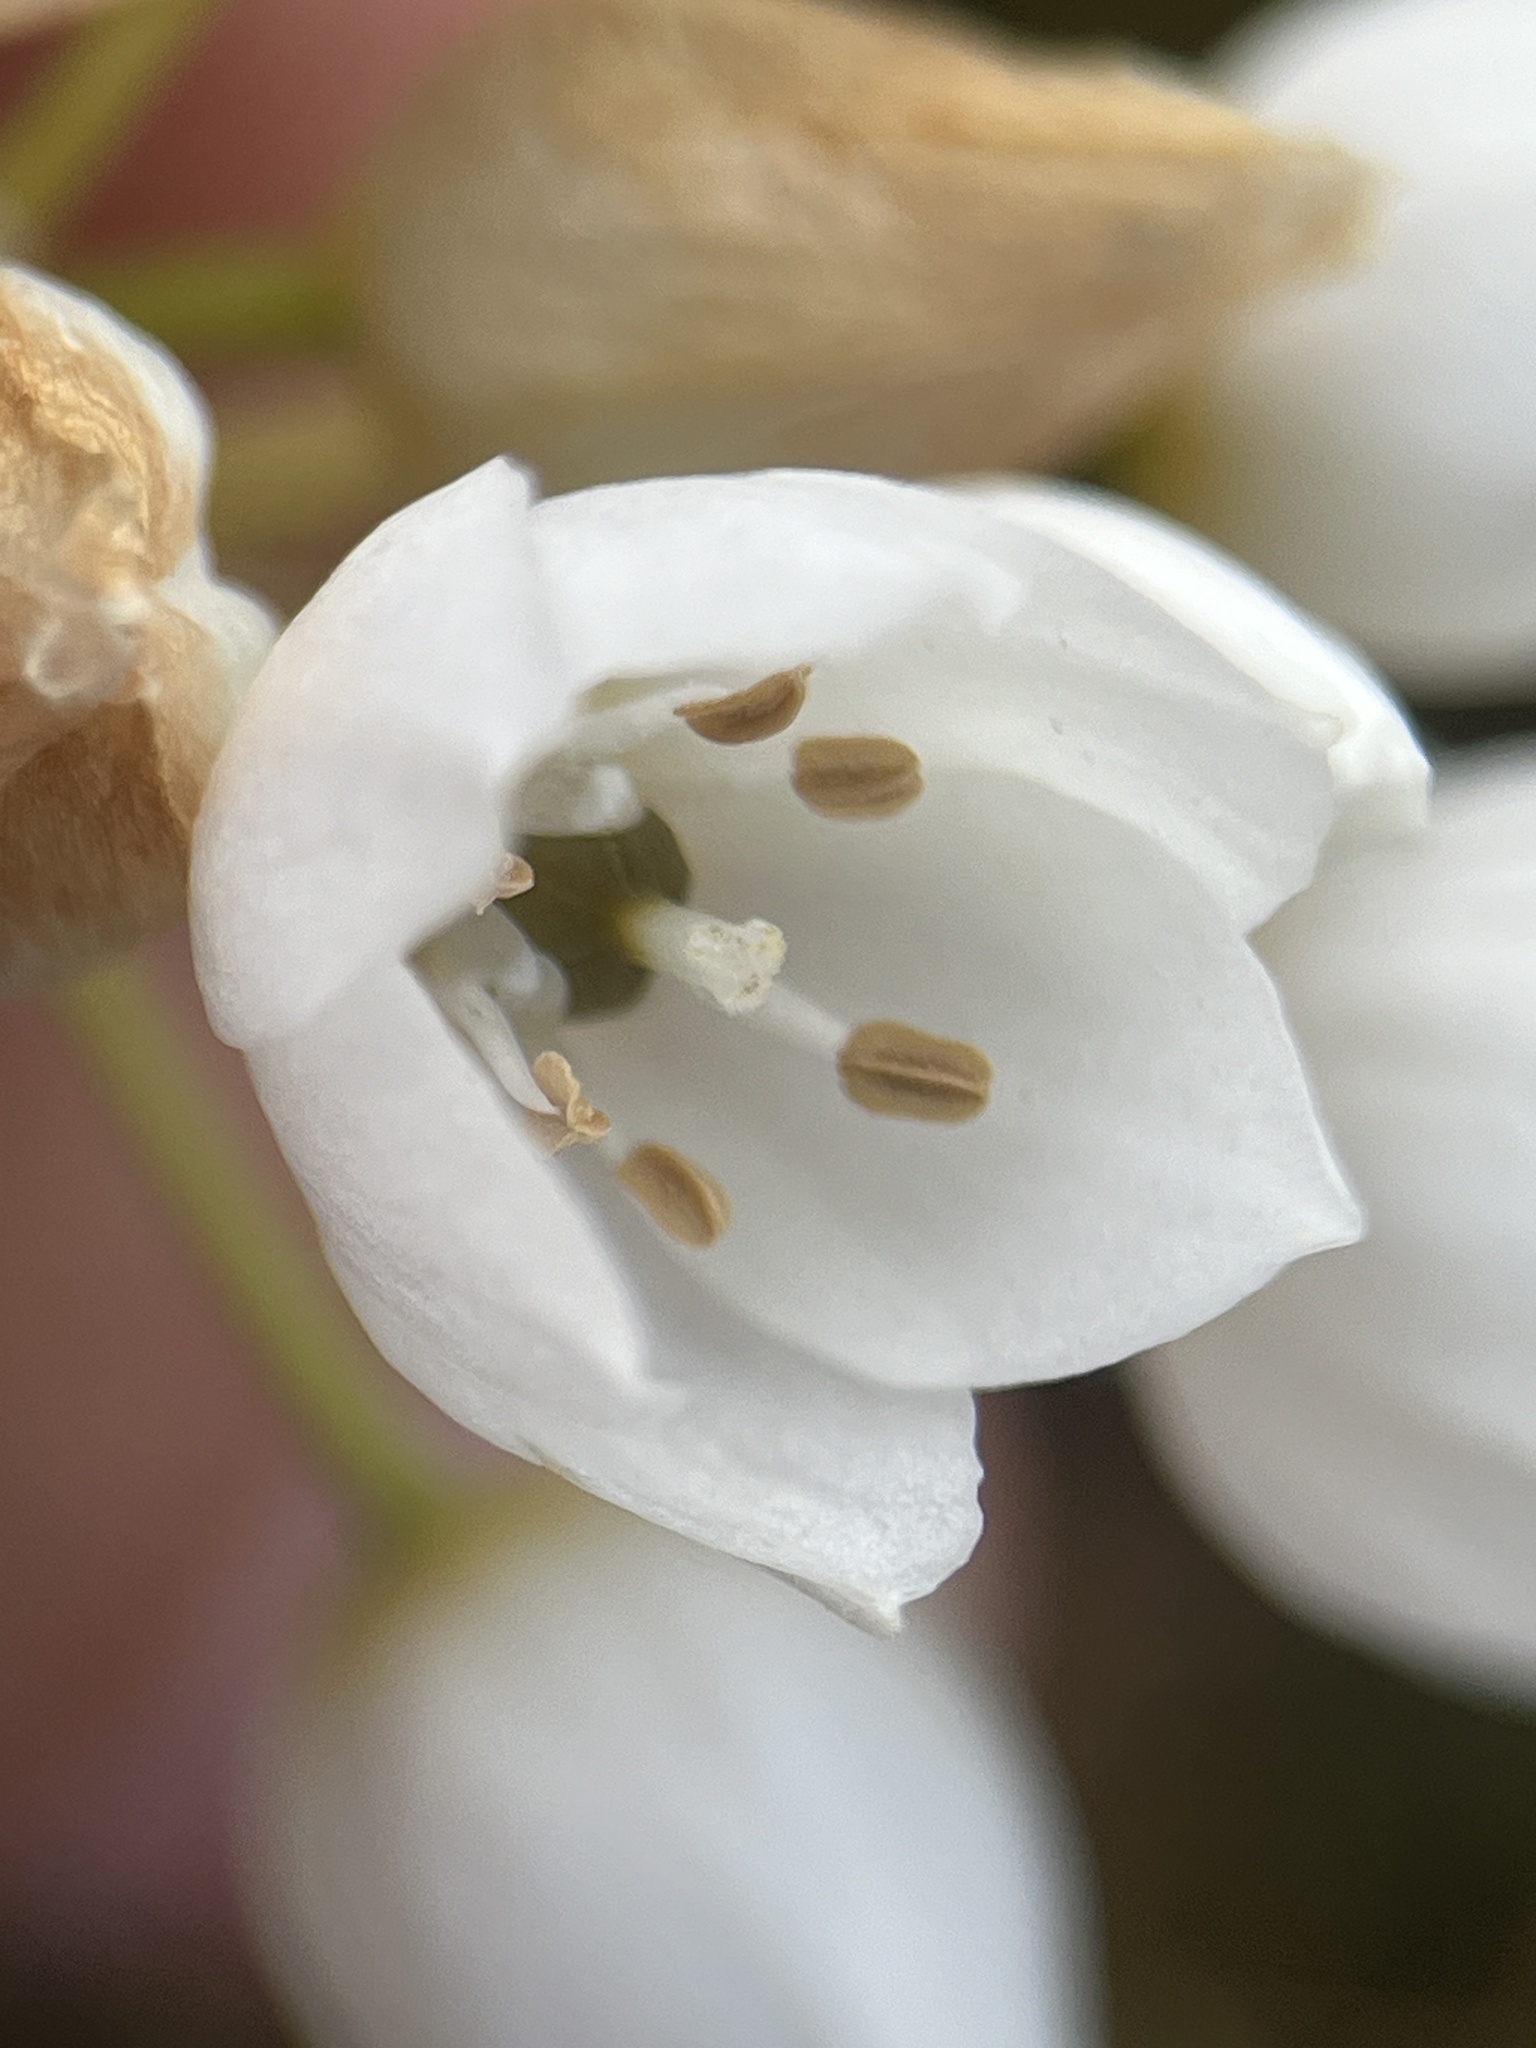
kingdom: Plantae
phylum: Tracheophyta
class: Liliopsida
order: Asparagales
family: Asparagaceae
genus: Ornithogalum
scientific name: Ornithogalum thyrsoides
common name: Chincherinchee
